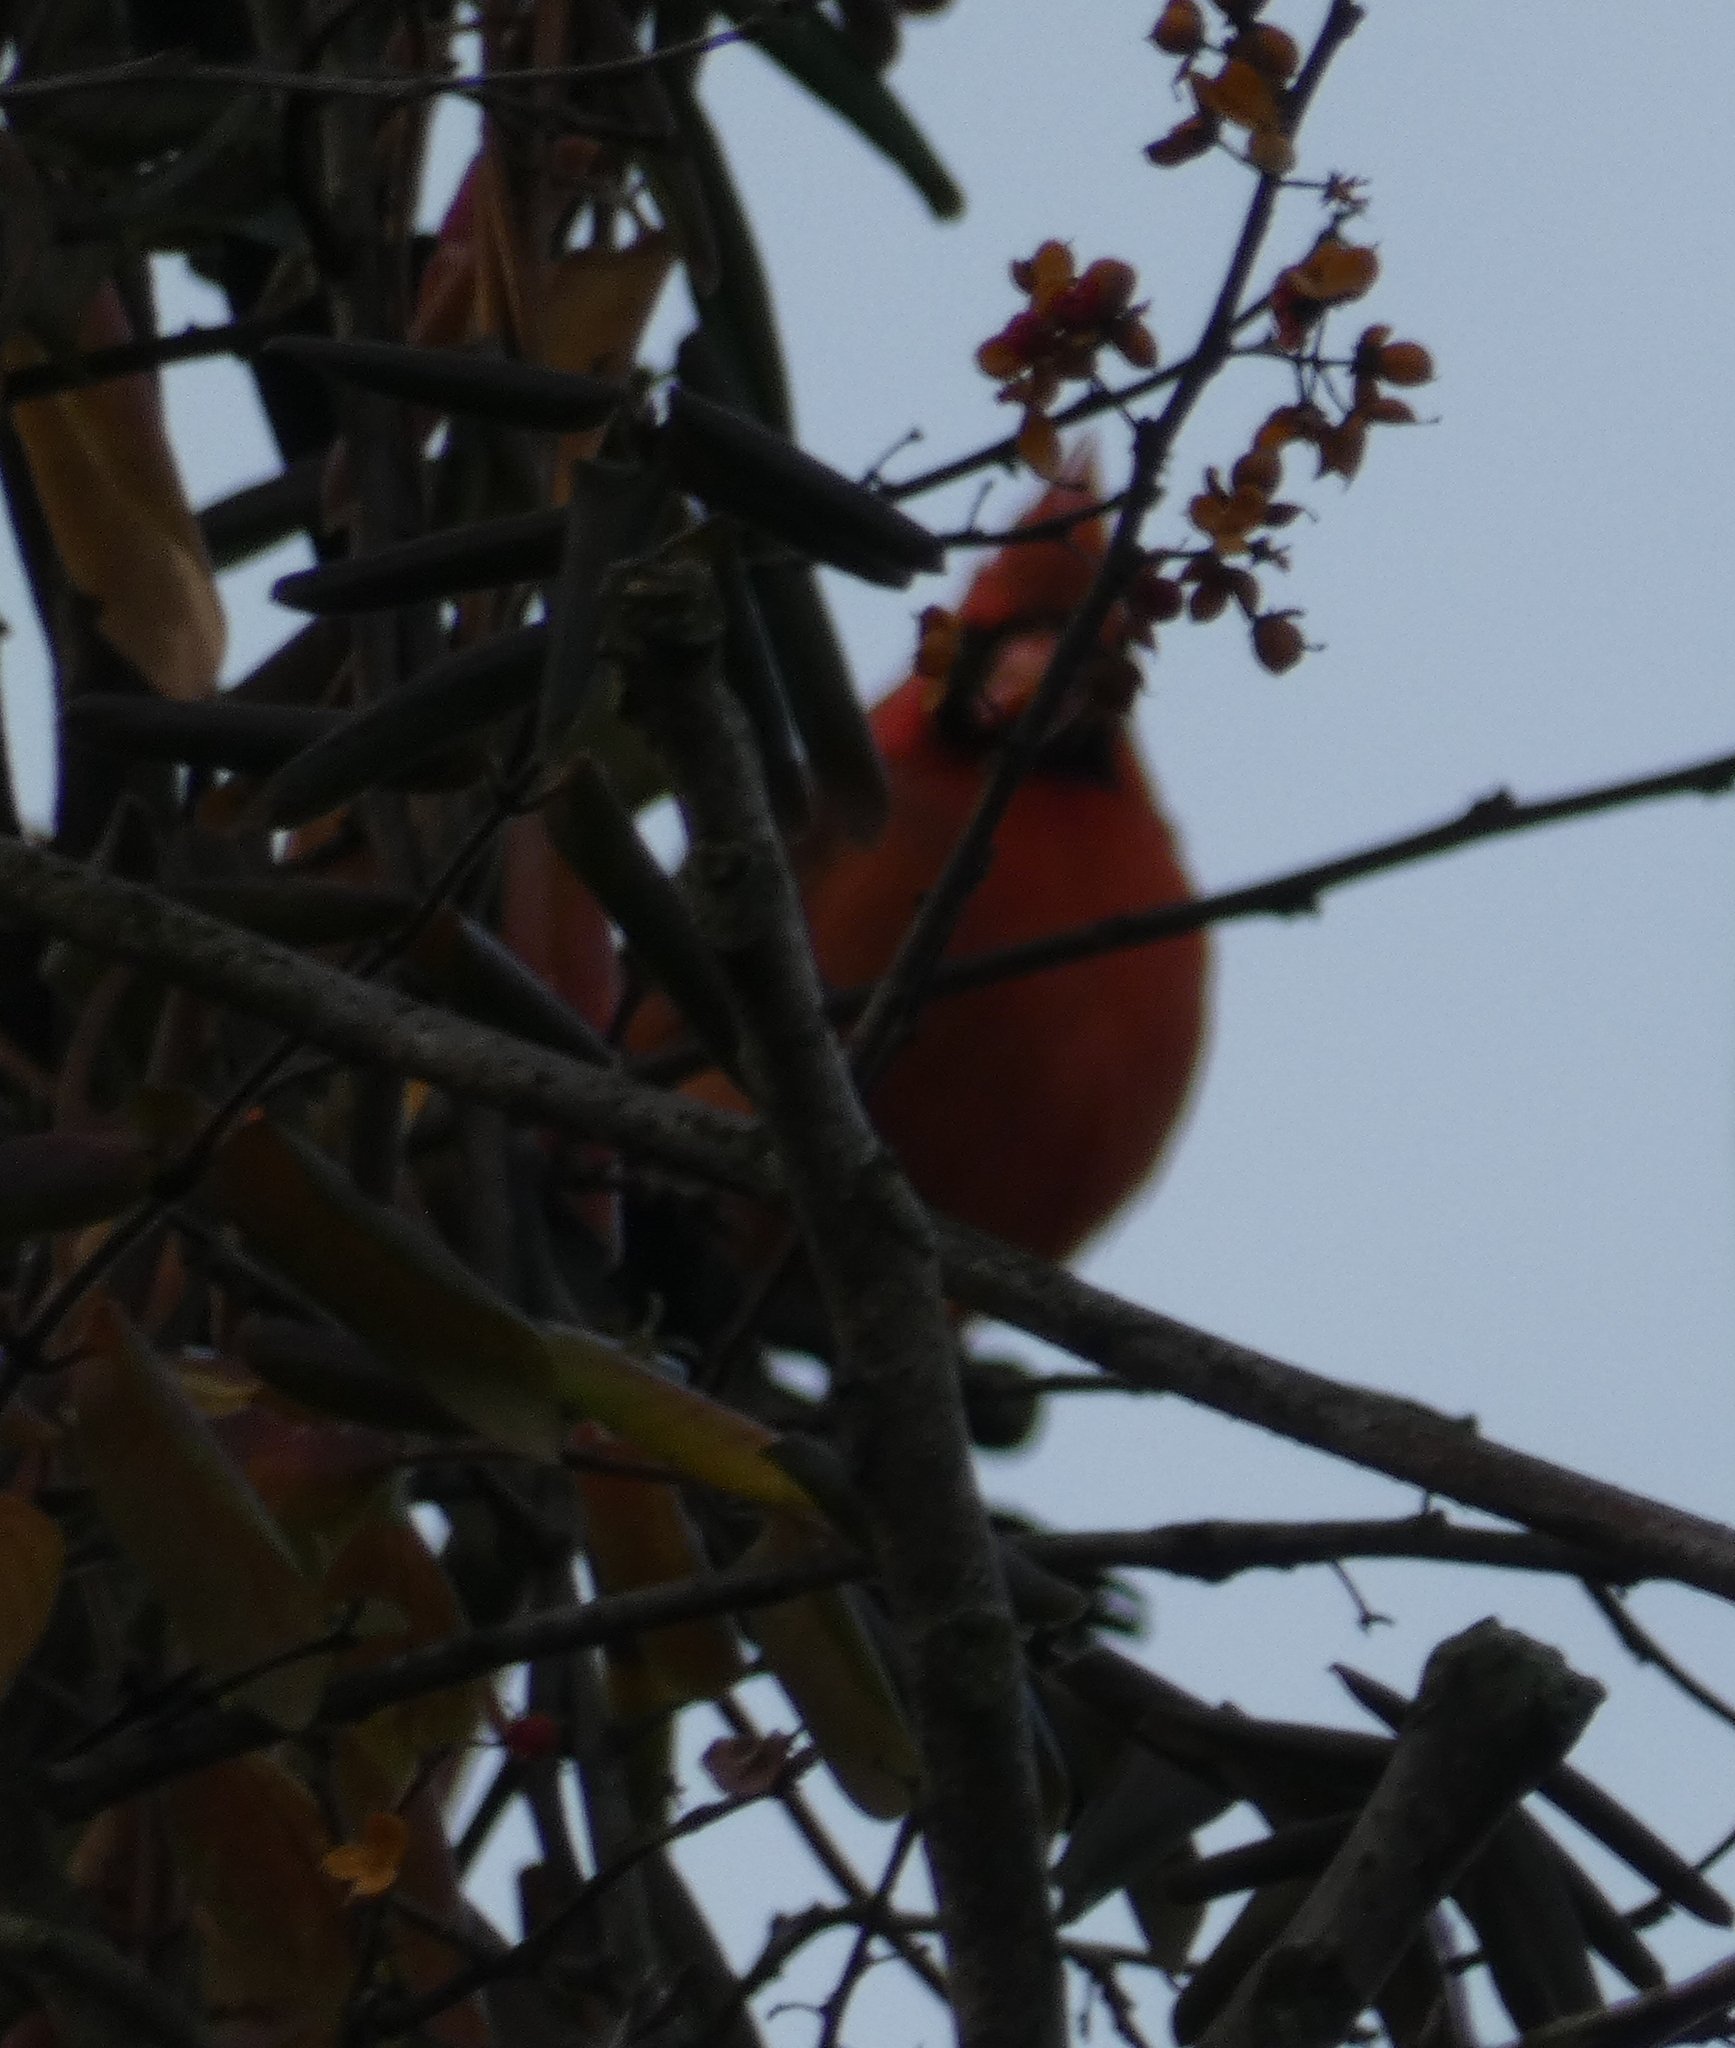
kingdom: Animalia
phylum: Chordata
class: Aves
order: Passeriformes
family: Cardinalidae
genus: Cardinalis
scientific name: Cardinalis cardinalis
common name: Northern cardinal
